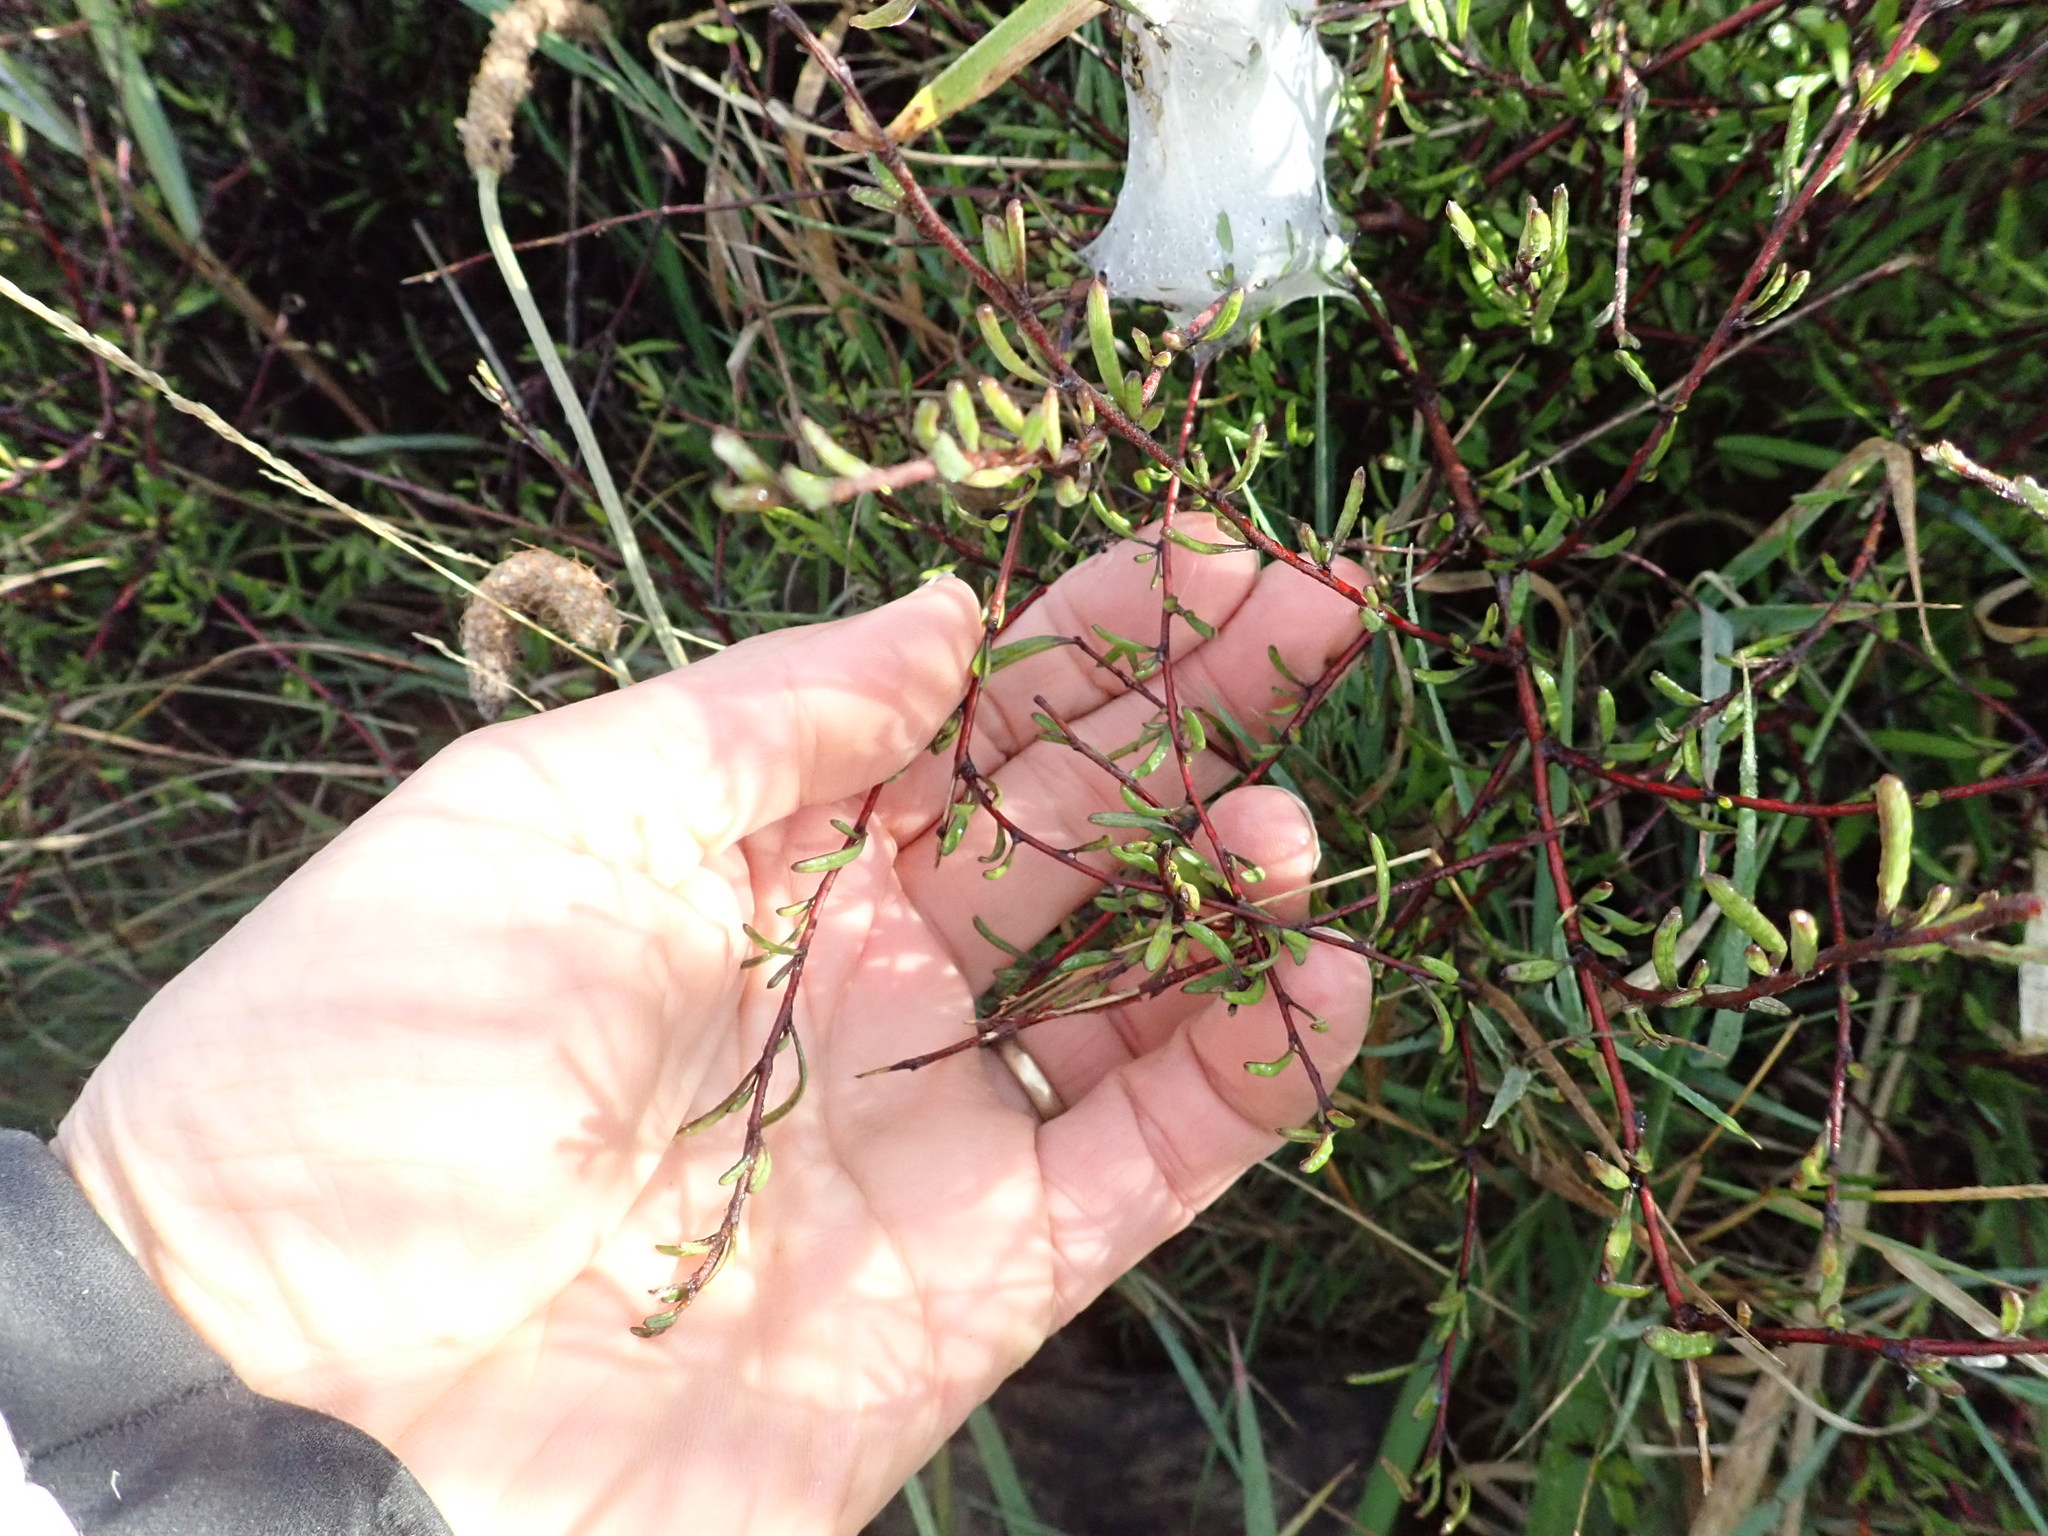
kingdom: Plantae
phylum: Tracheophyta
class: Magnoliopsida
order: Malvales
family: Malvaceae
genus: Plagianthus
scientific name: Plagianthus divaricatus
